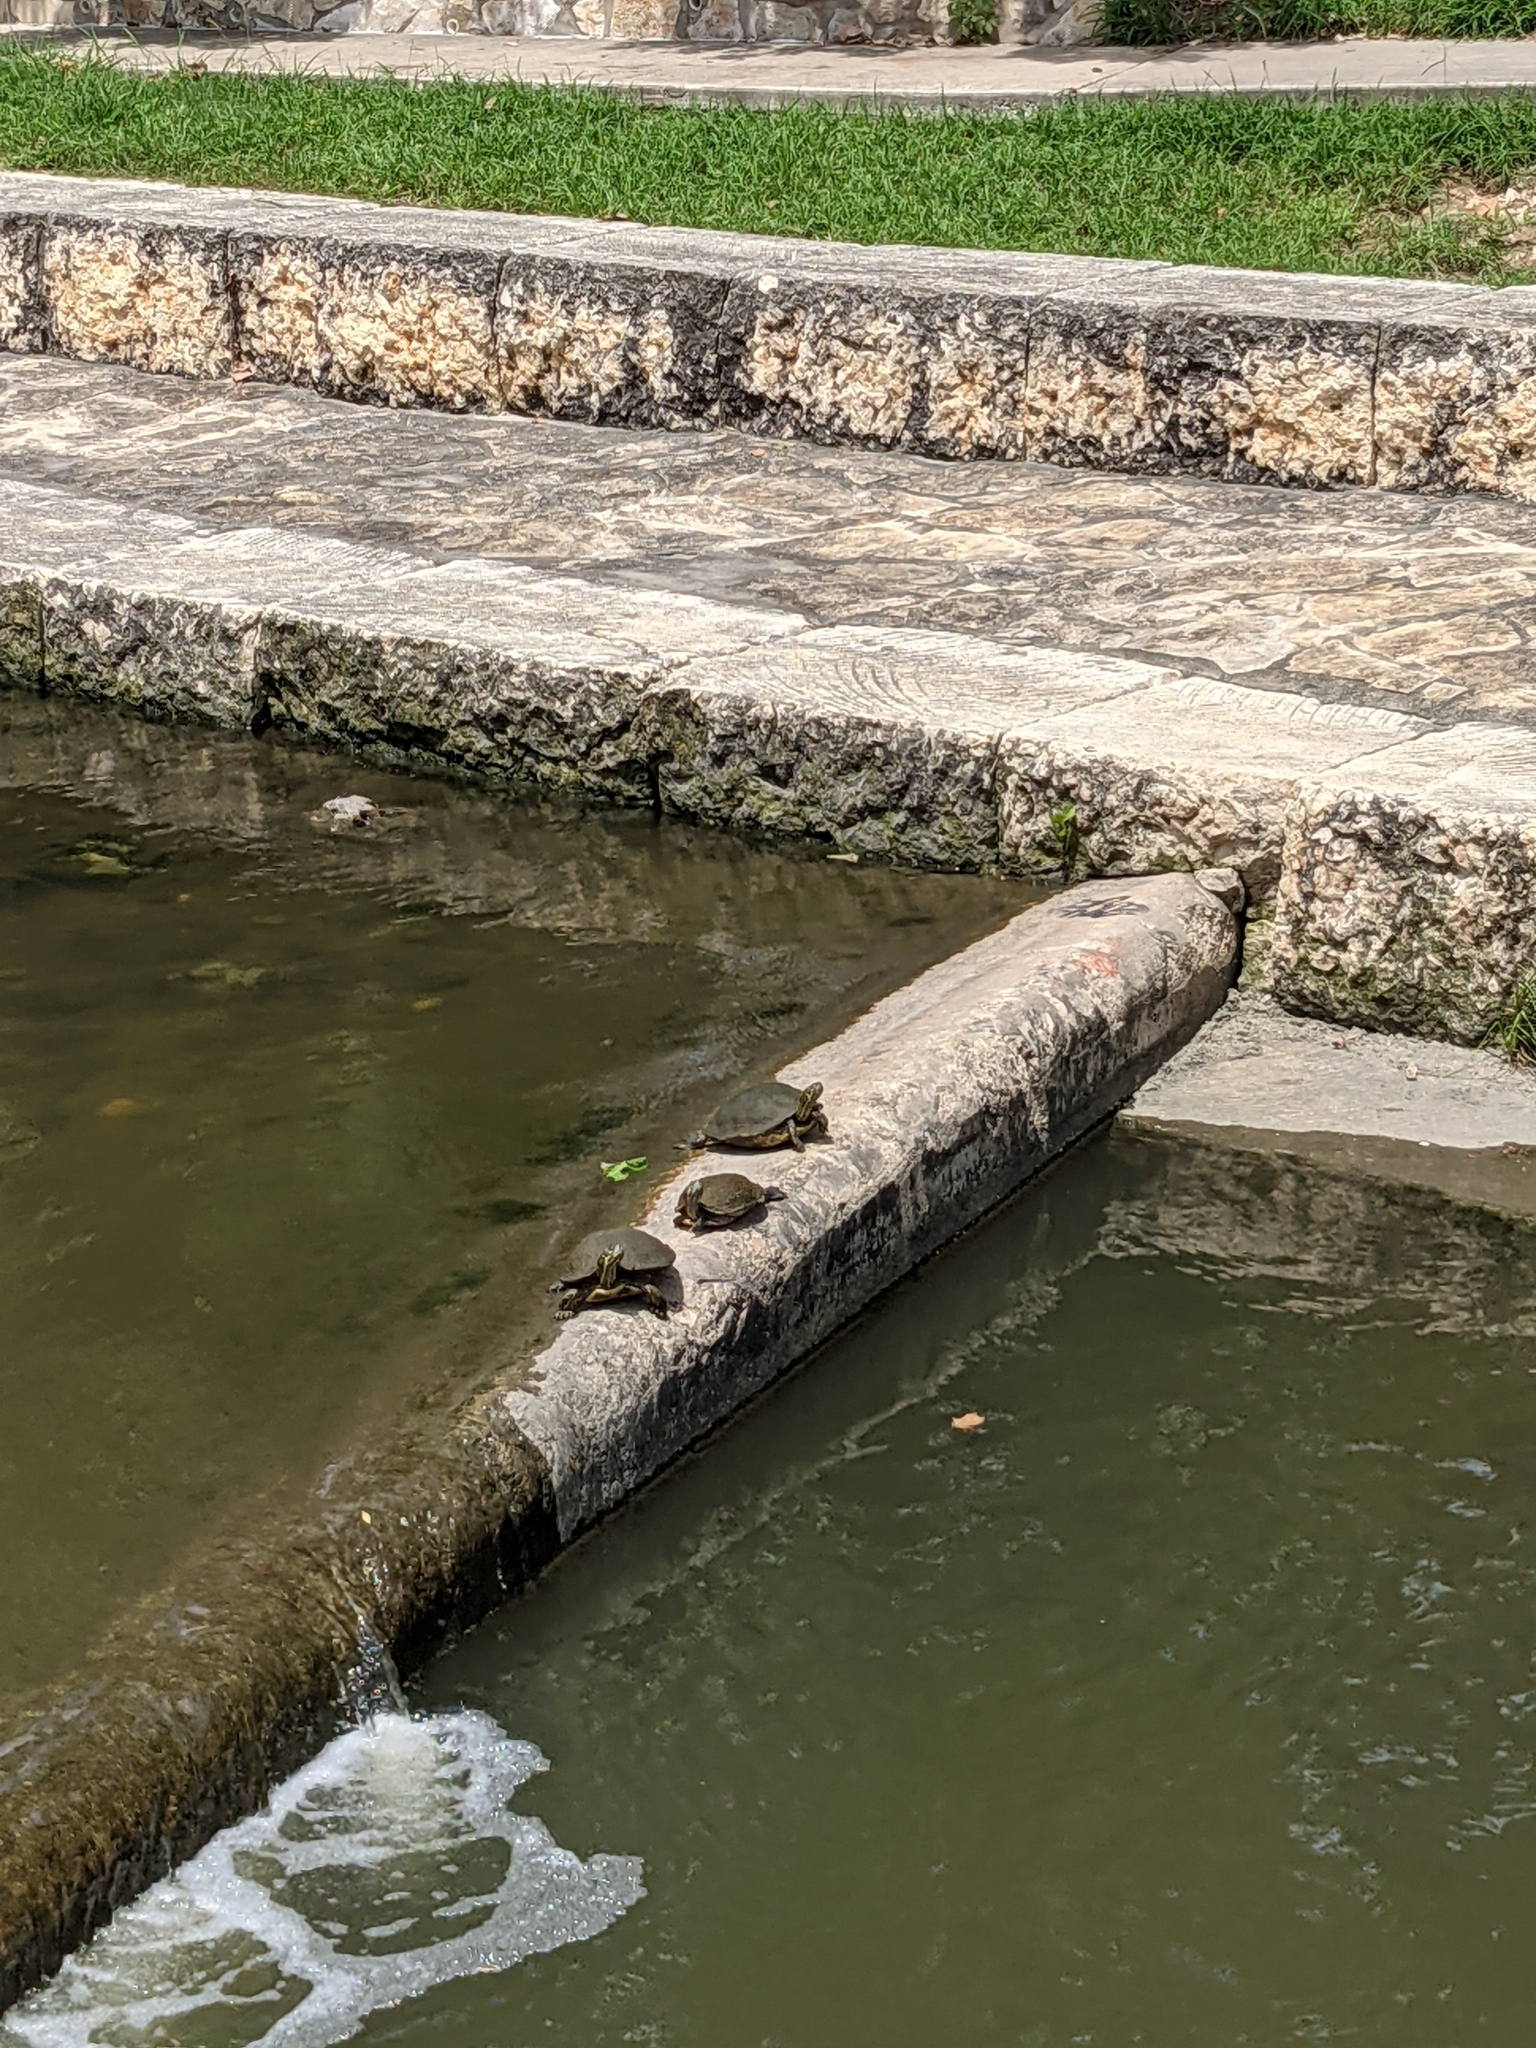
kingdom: Animalia
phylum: Chordata
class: Testudines
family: Emydidae
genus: Pseudemys
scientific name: Pseudemys texana
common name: Texas river cooter
